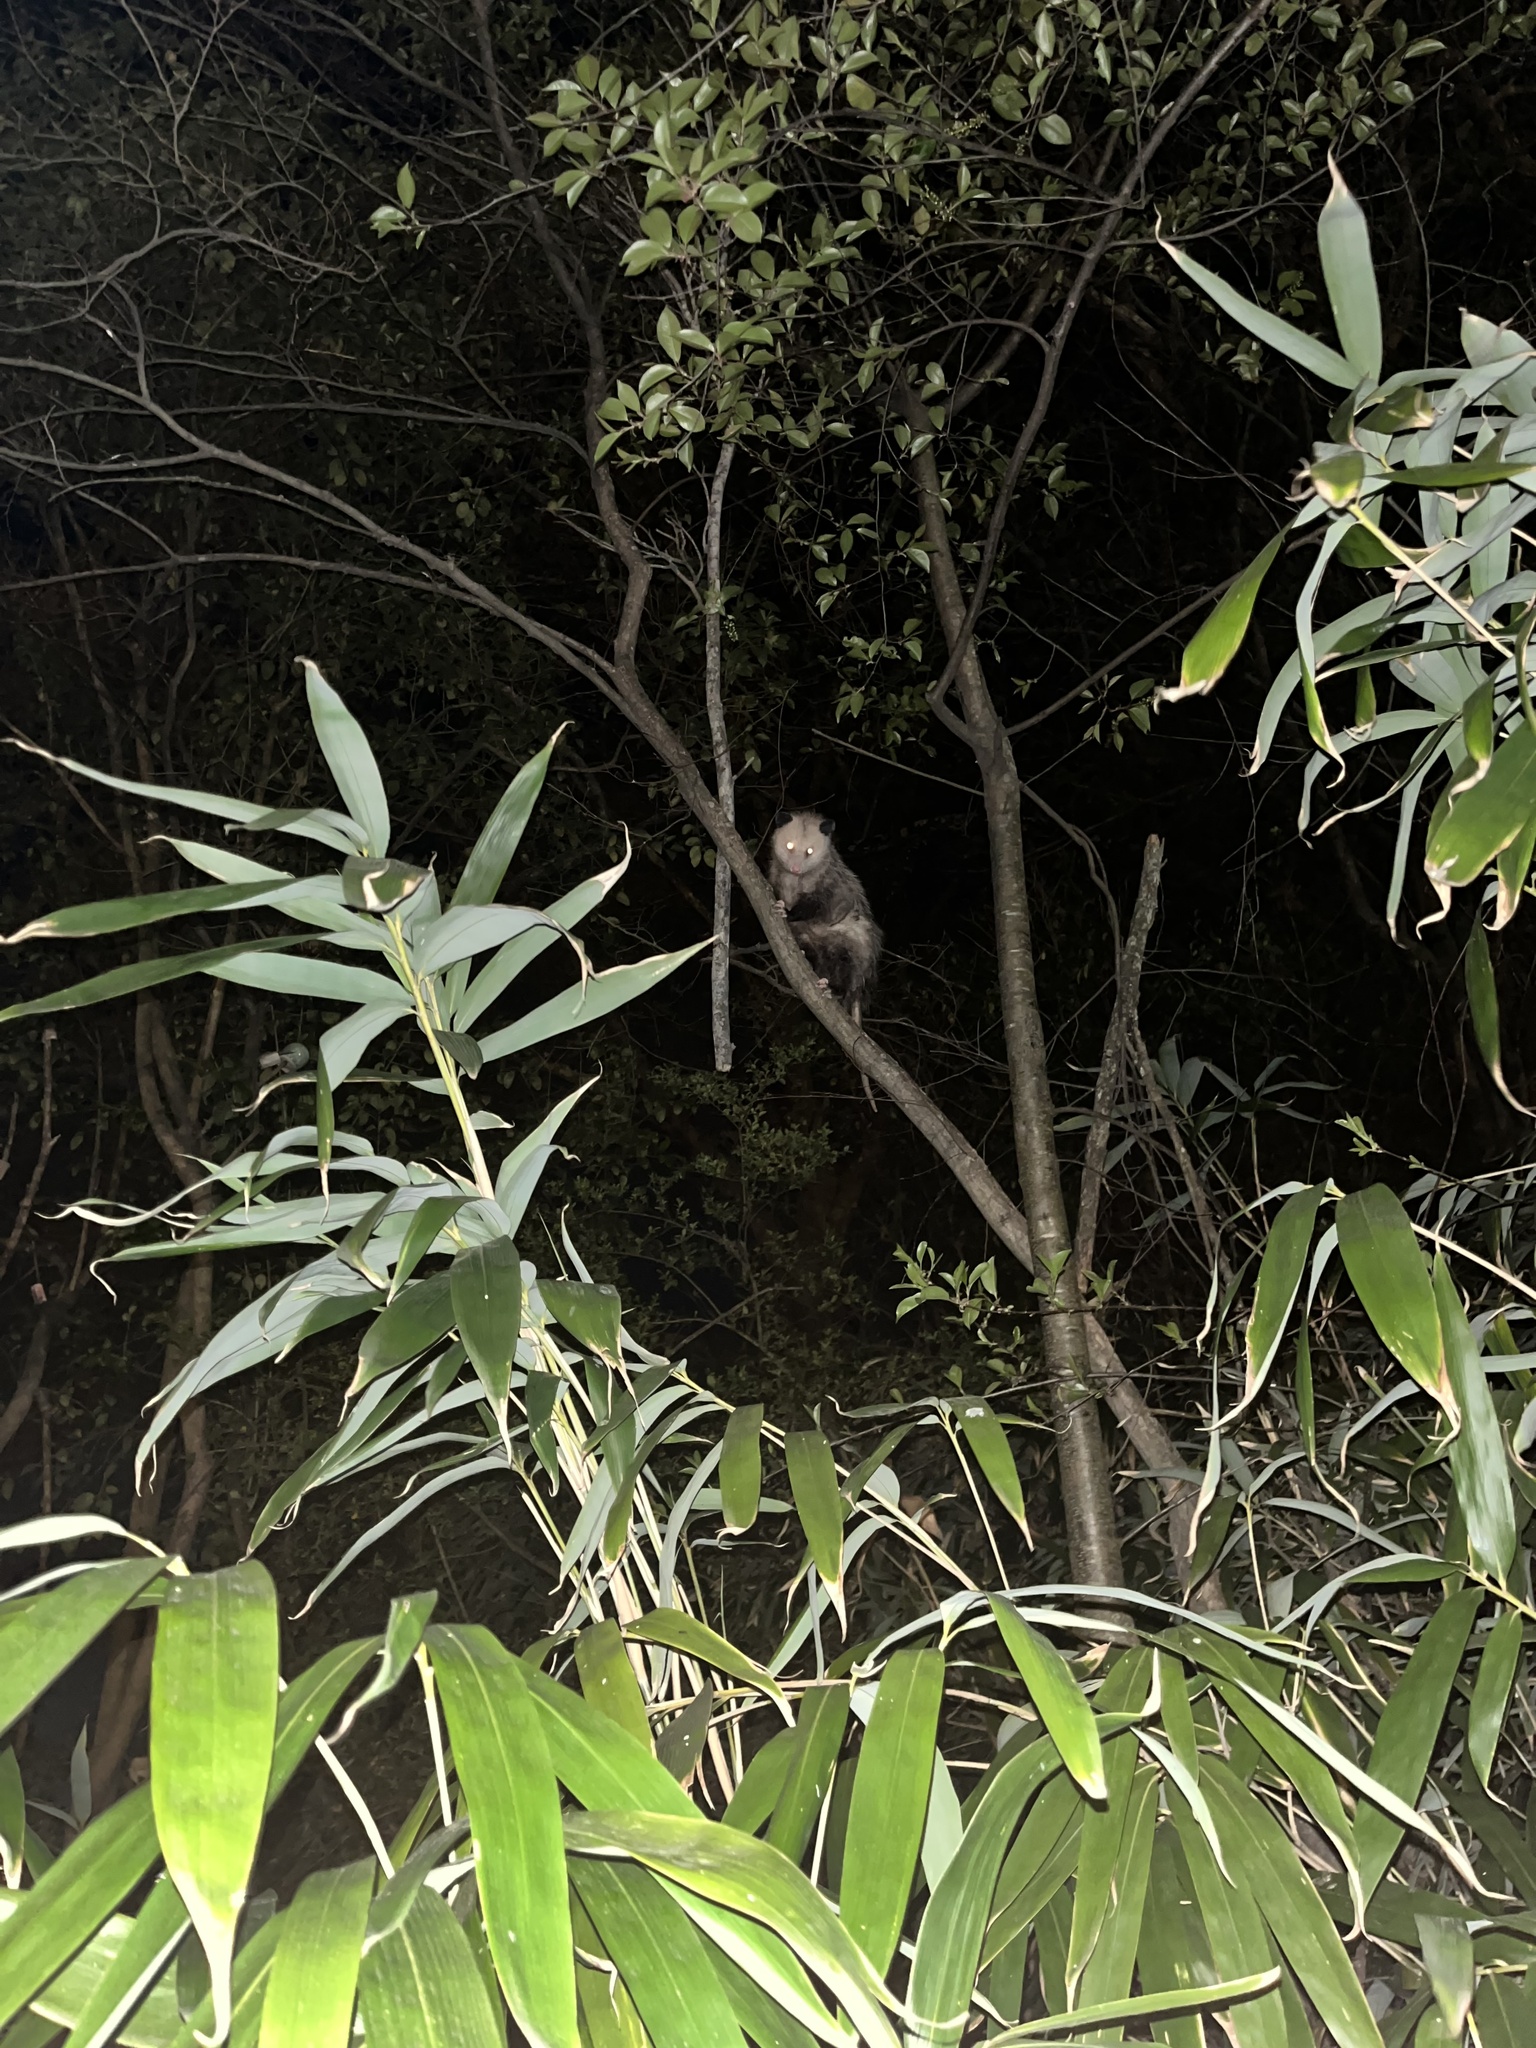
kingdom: Animalia
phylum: Chordata
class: Mammalia
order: Didelphimorphia
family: Didelphidae
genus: Didelphis
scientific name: Didelphis virginiana
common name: Virginia opossum
